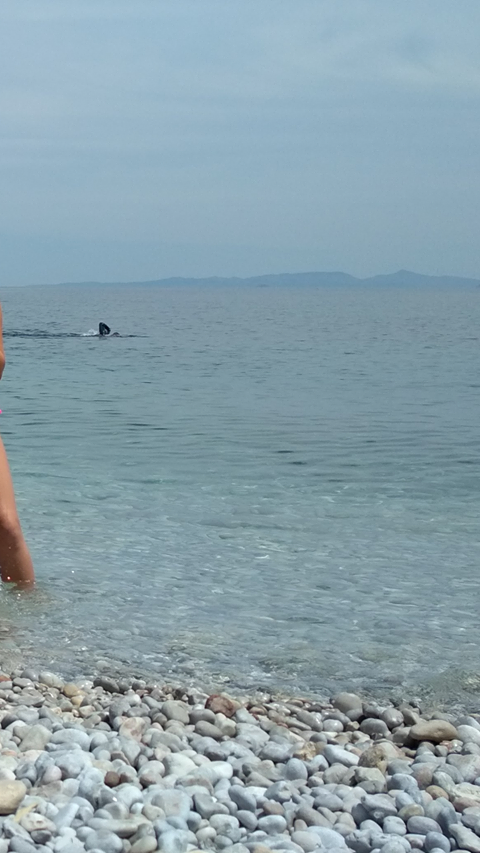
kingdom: Animalia
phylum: Chordata
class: Elasmobranchii
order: Lamniformes
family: Cetorhinidae
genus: Cetorhinus
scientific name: Cetorhinus maximus
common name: Basking shark
